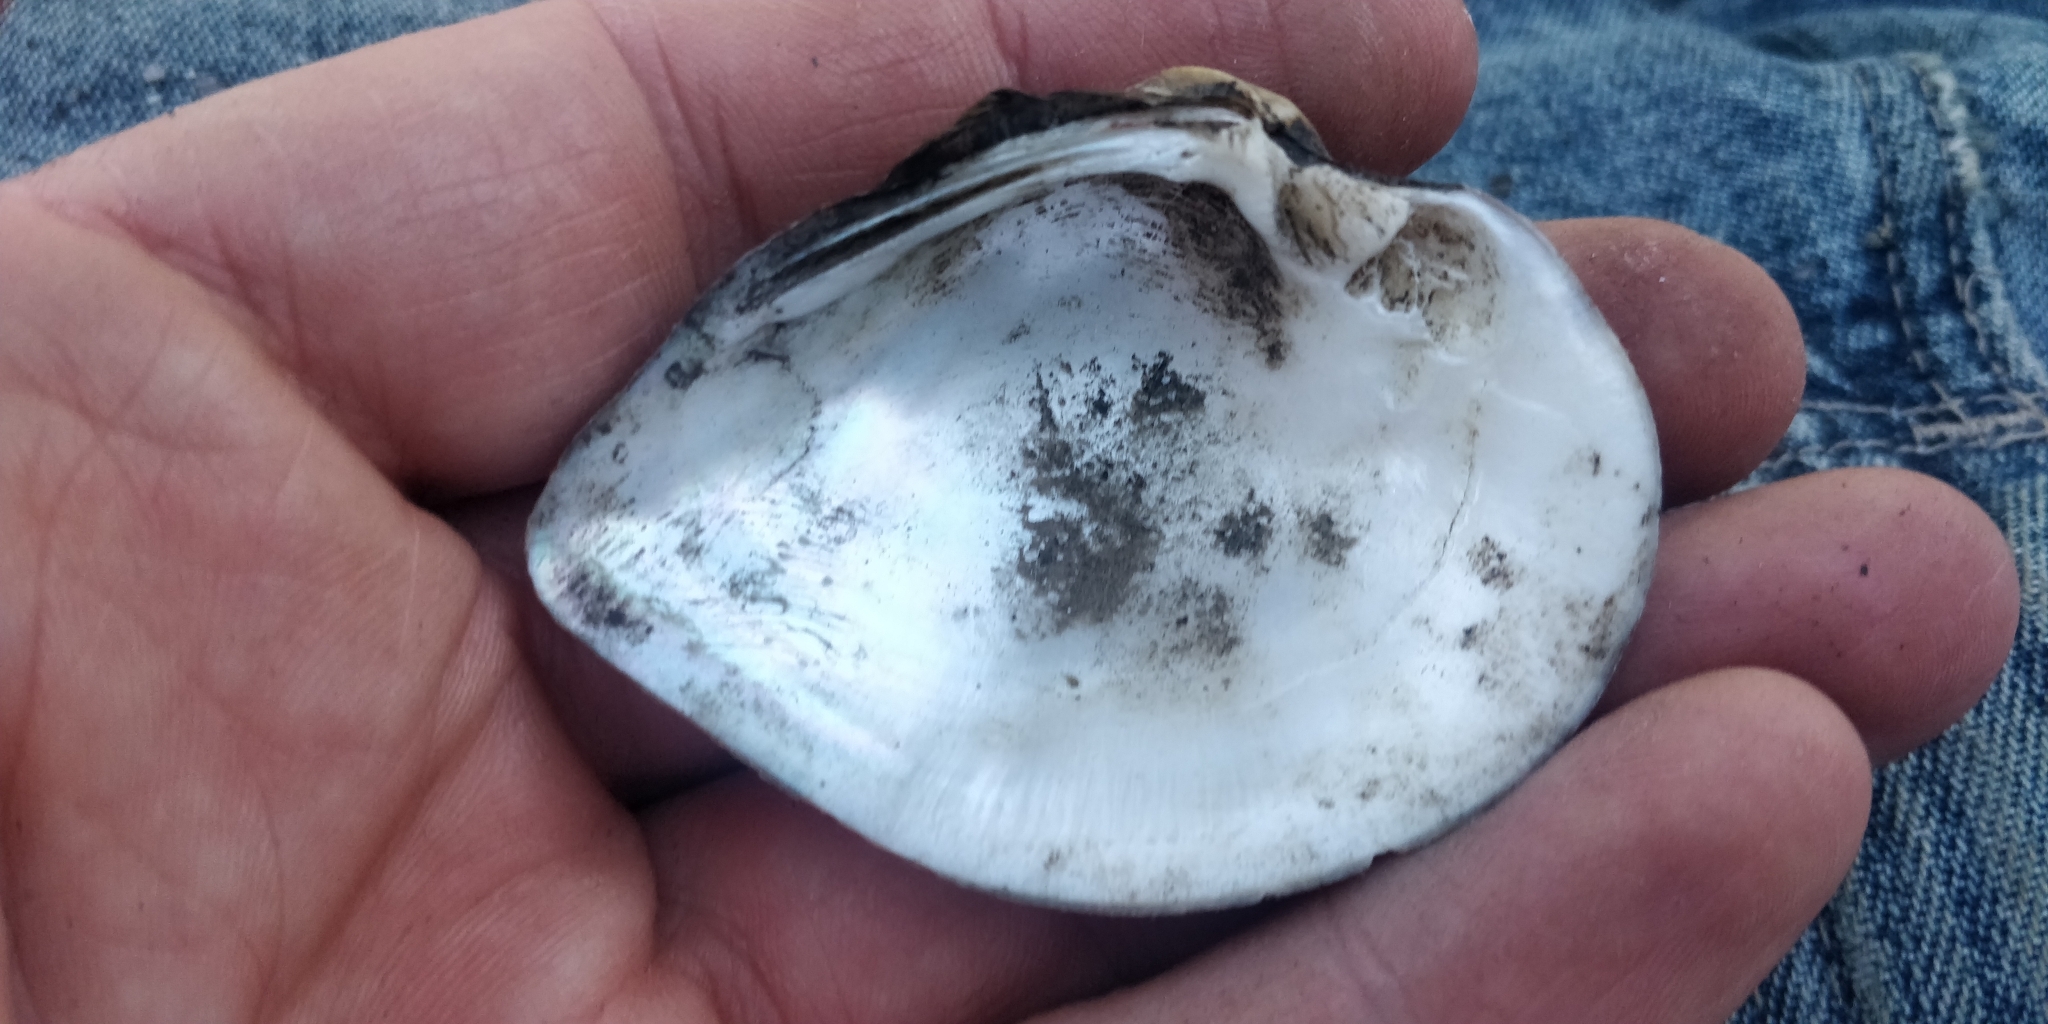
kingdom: Animalia
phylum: Mollusca
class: Bivalvia
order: Unionida
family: Unionidae
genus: Truncilla
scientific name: Truncilla truncata
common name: Deertoe
